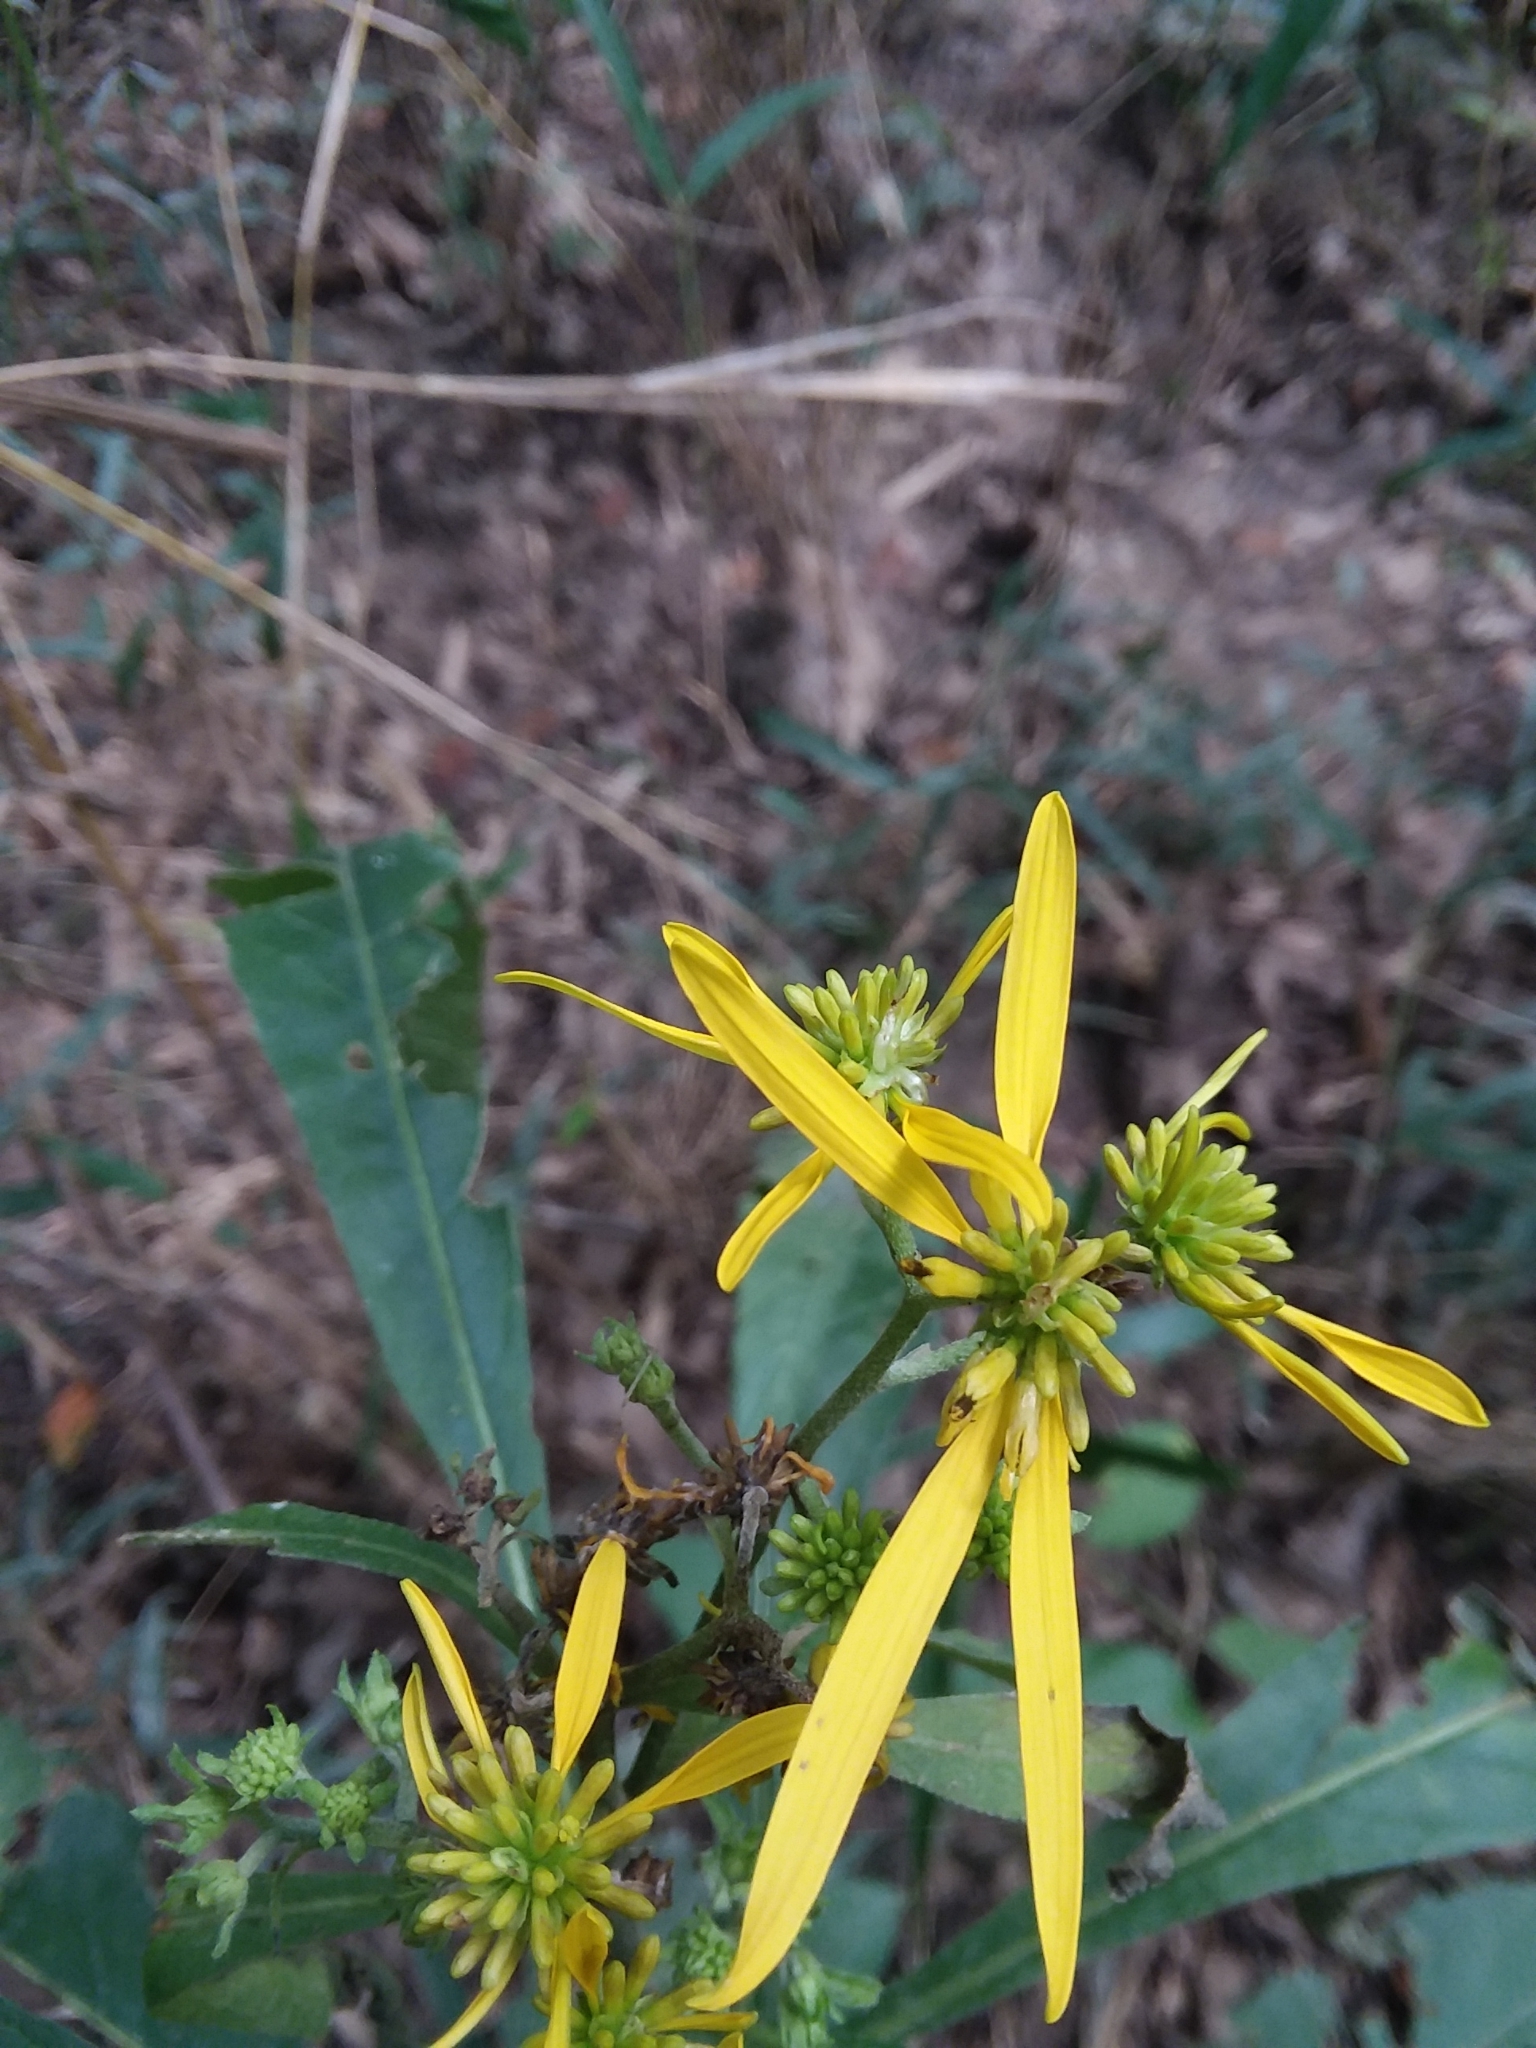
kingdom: Plantae
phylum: Tracheophyta
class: Magnoliopsida
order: Asterales
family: Asteraceae
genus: Verbesina
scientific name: Verbesina alternifolia
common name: Wingstem
